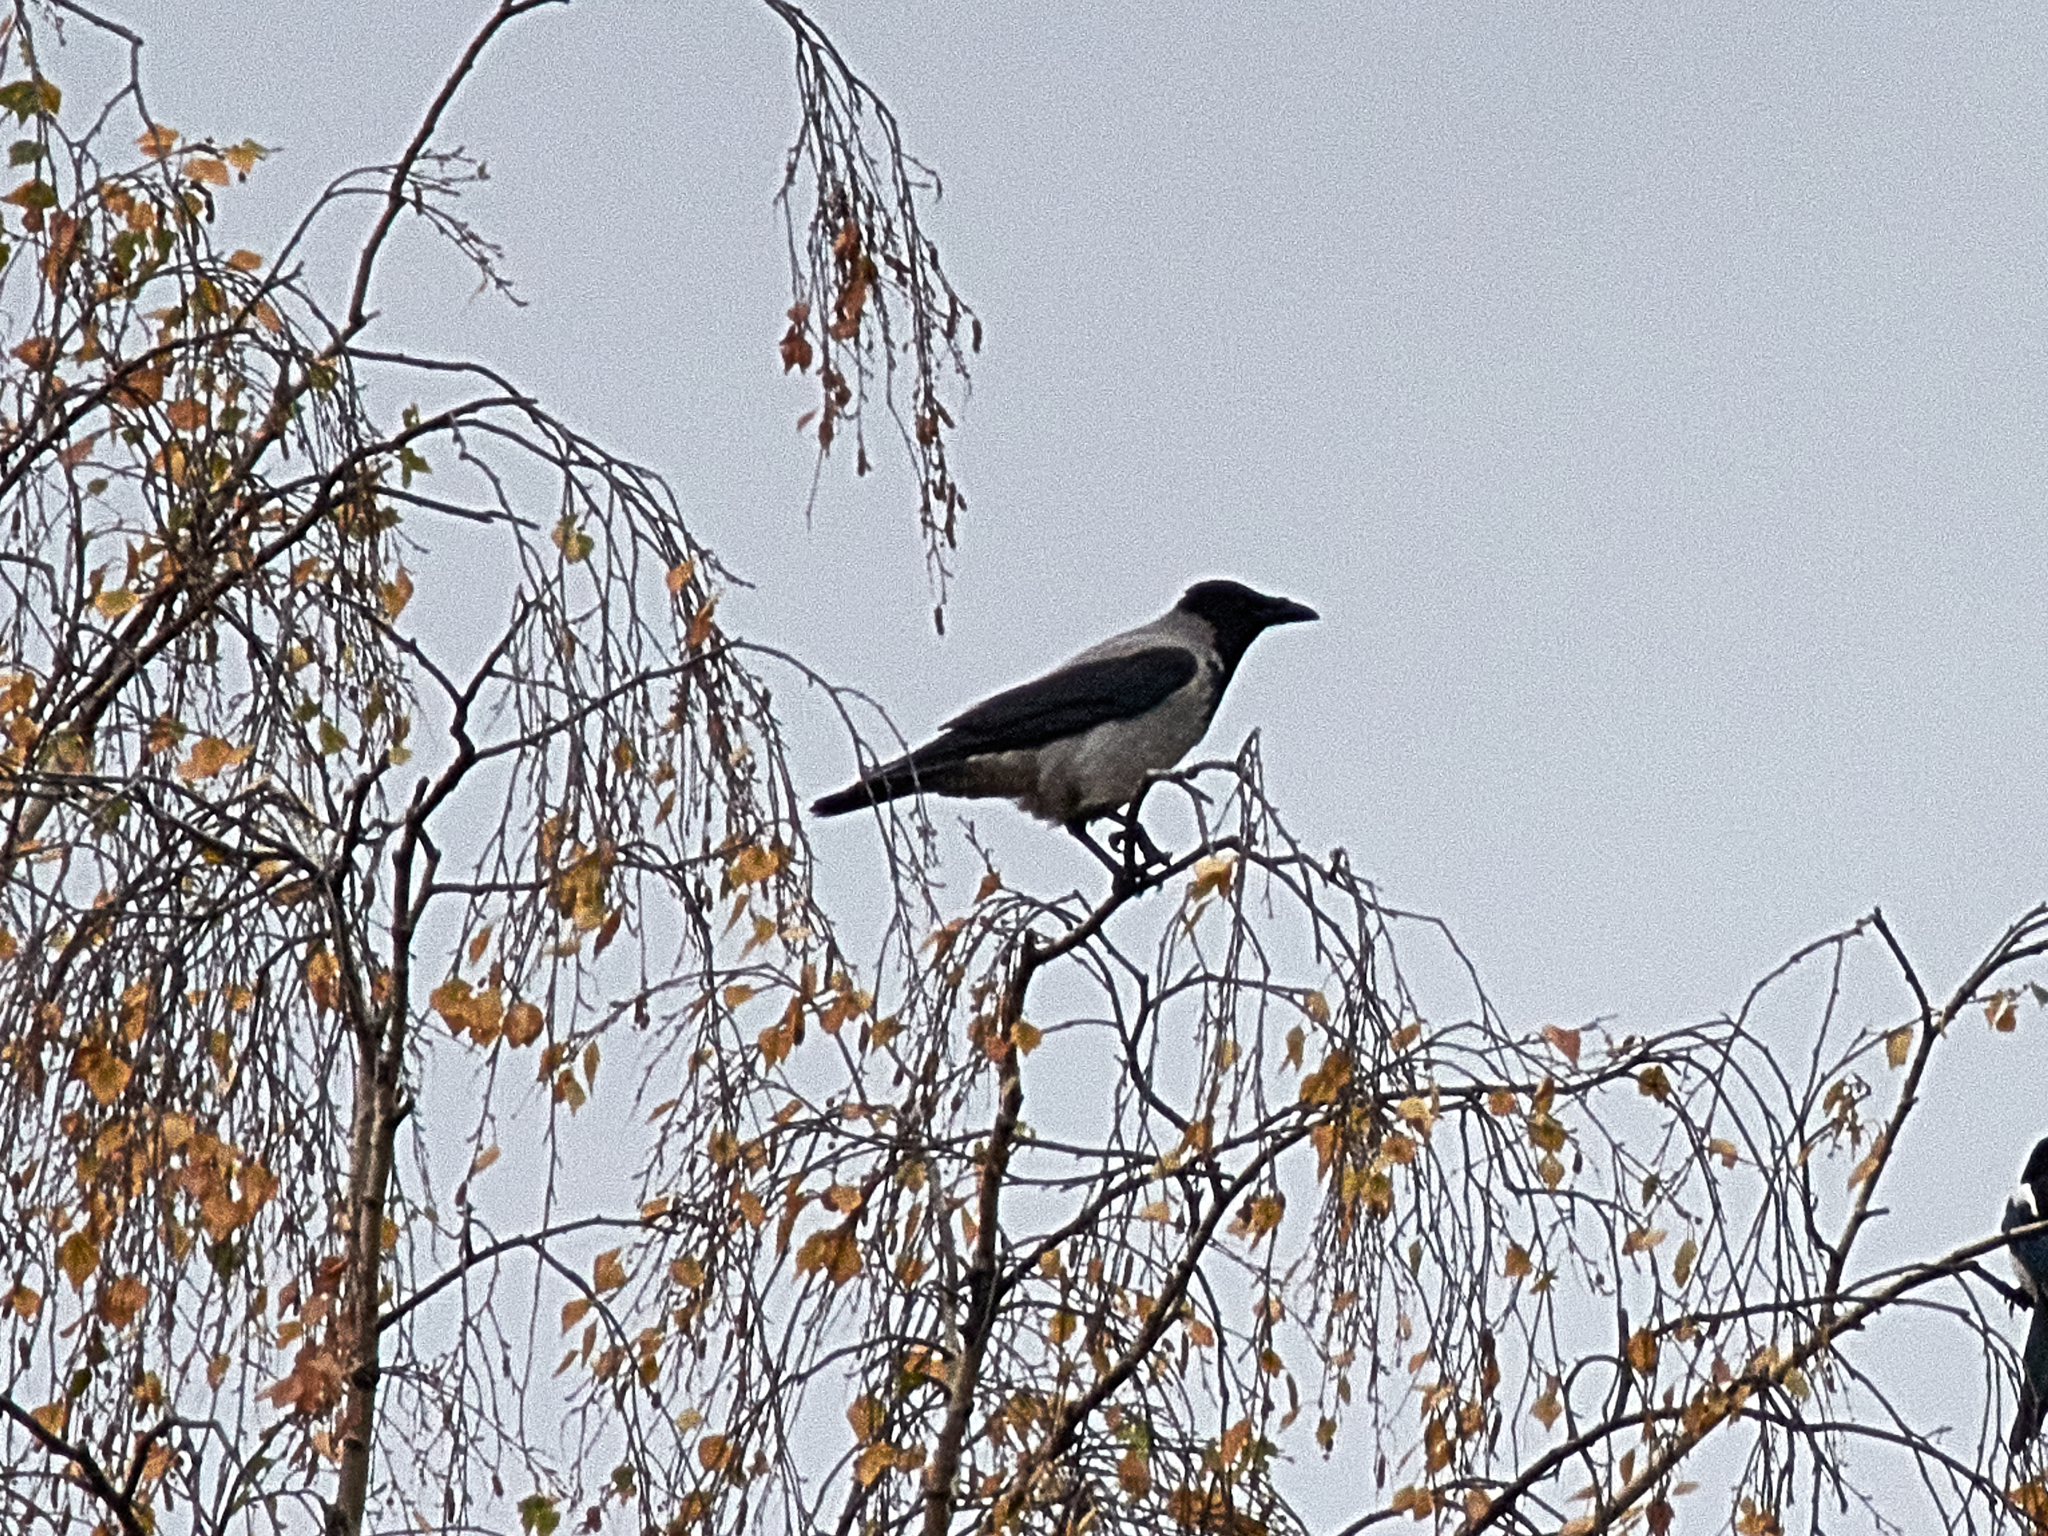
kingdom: Animalia
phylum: Chordata
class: Aves
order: Passeriformes
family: Corvidae
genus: Corvus
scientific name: Corvus cornix
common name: Hooded crow
